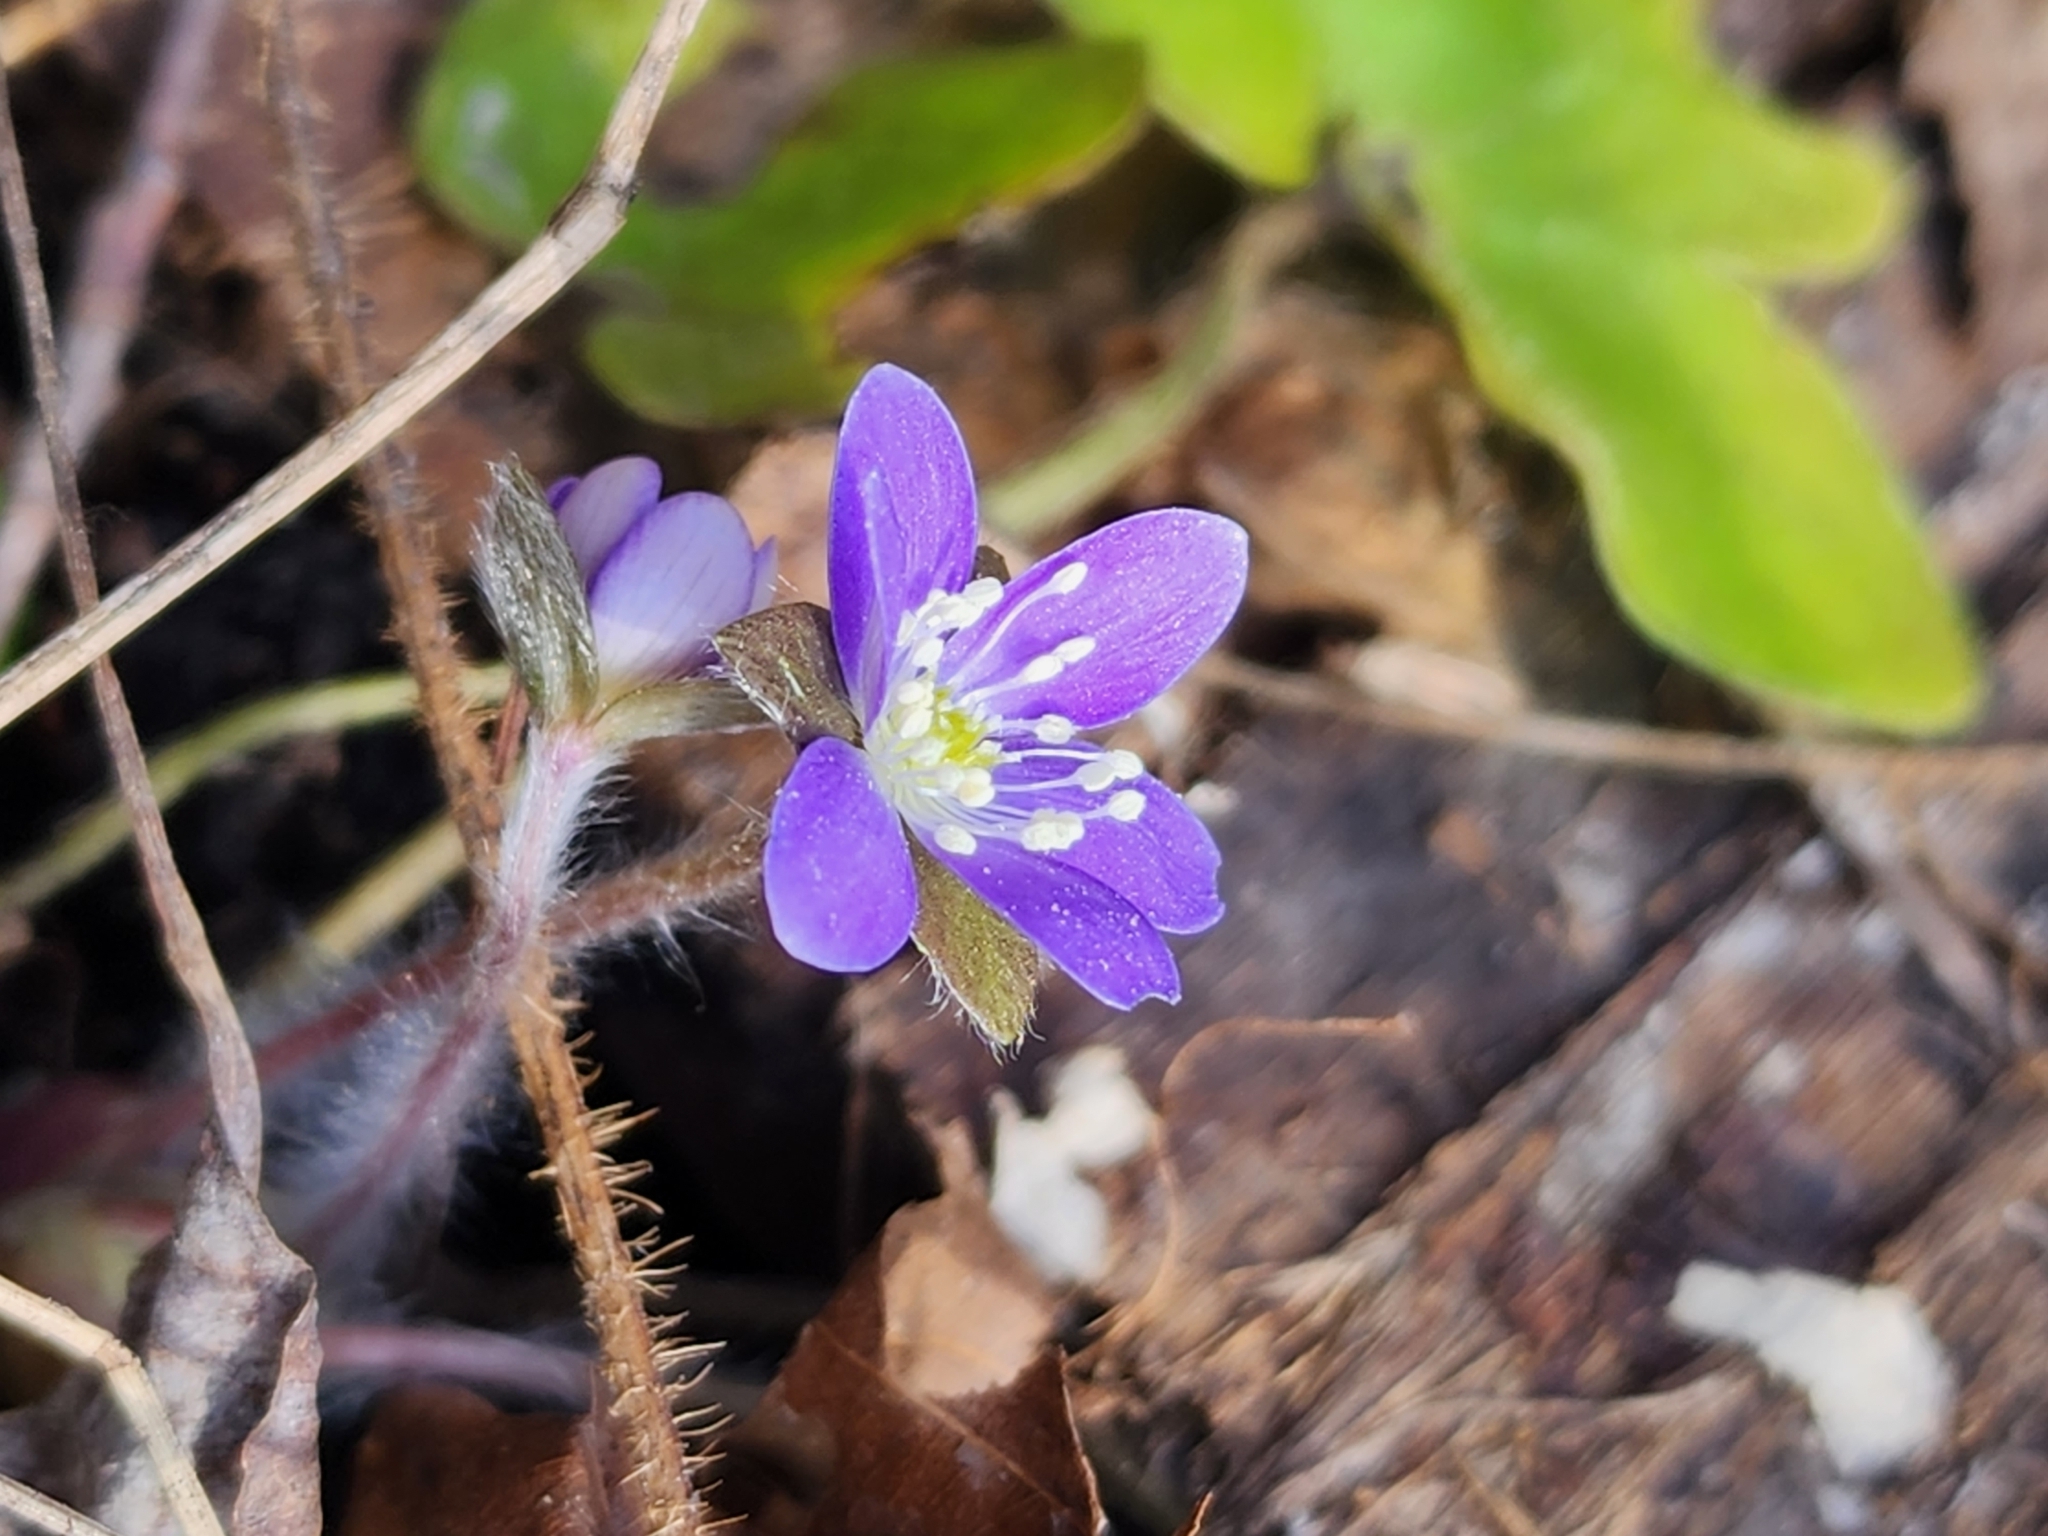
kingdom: Plantae
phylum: Tracheophyta
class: Magnoliopsida
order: Ranunculales
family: Ranunculaceae
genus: Hepatica
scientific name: Hepatica americana
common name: American hepatica
